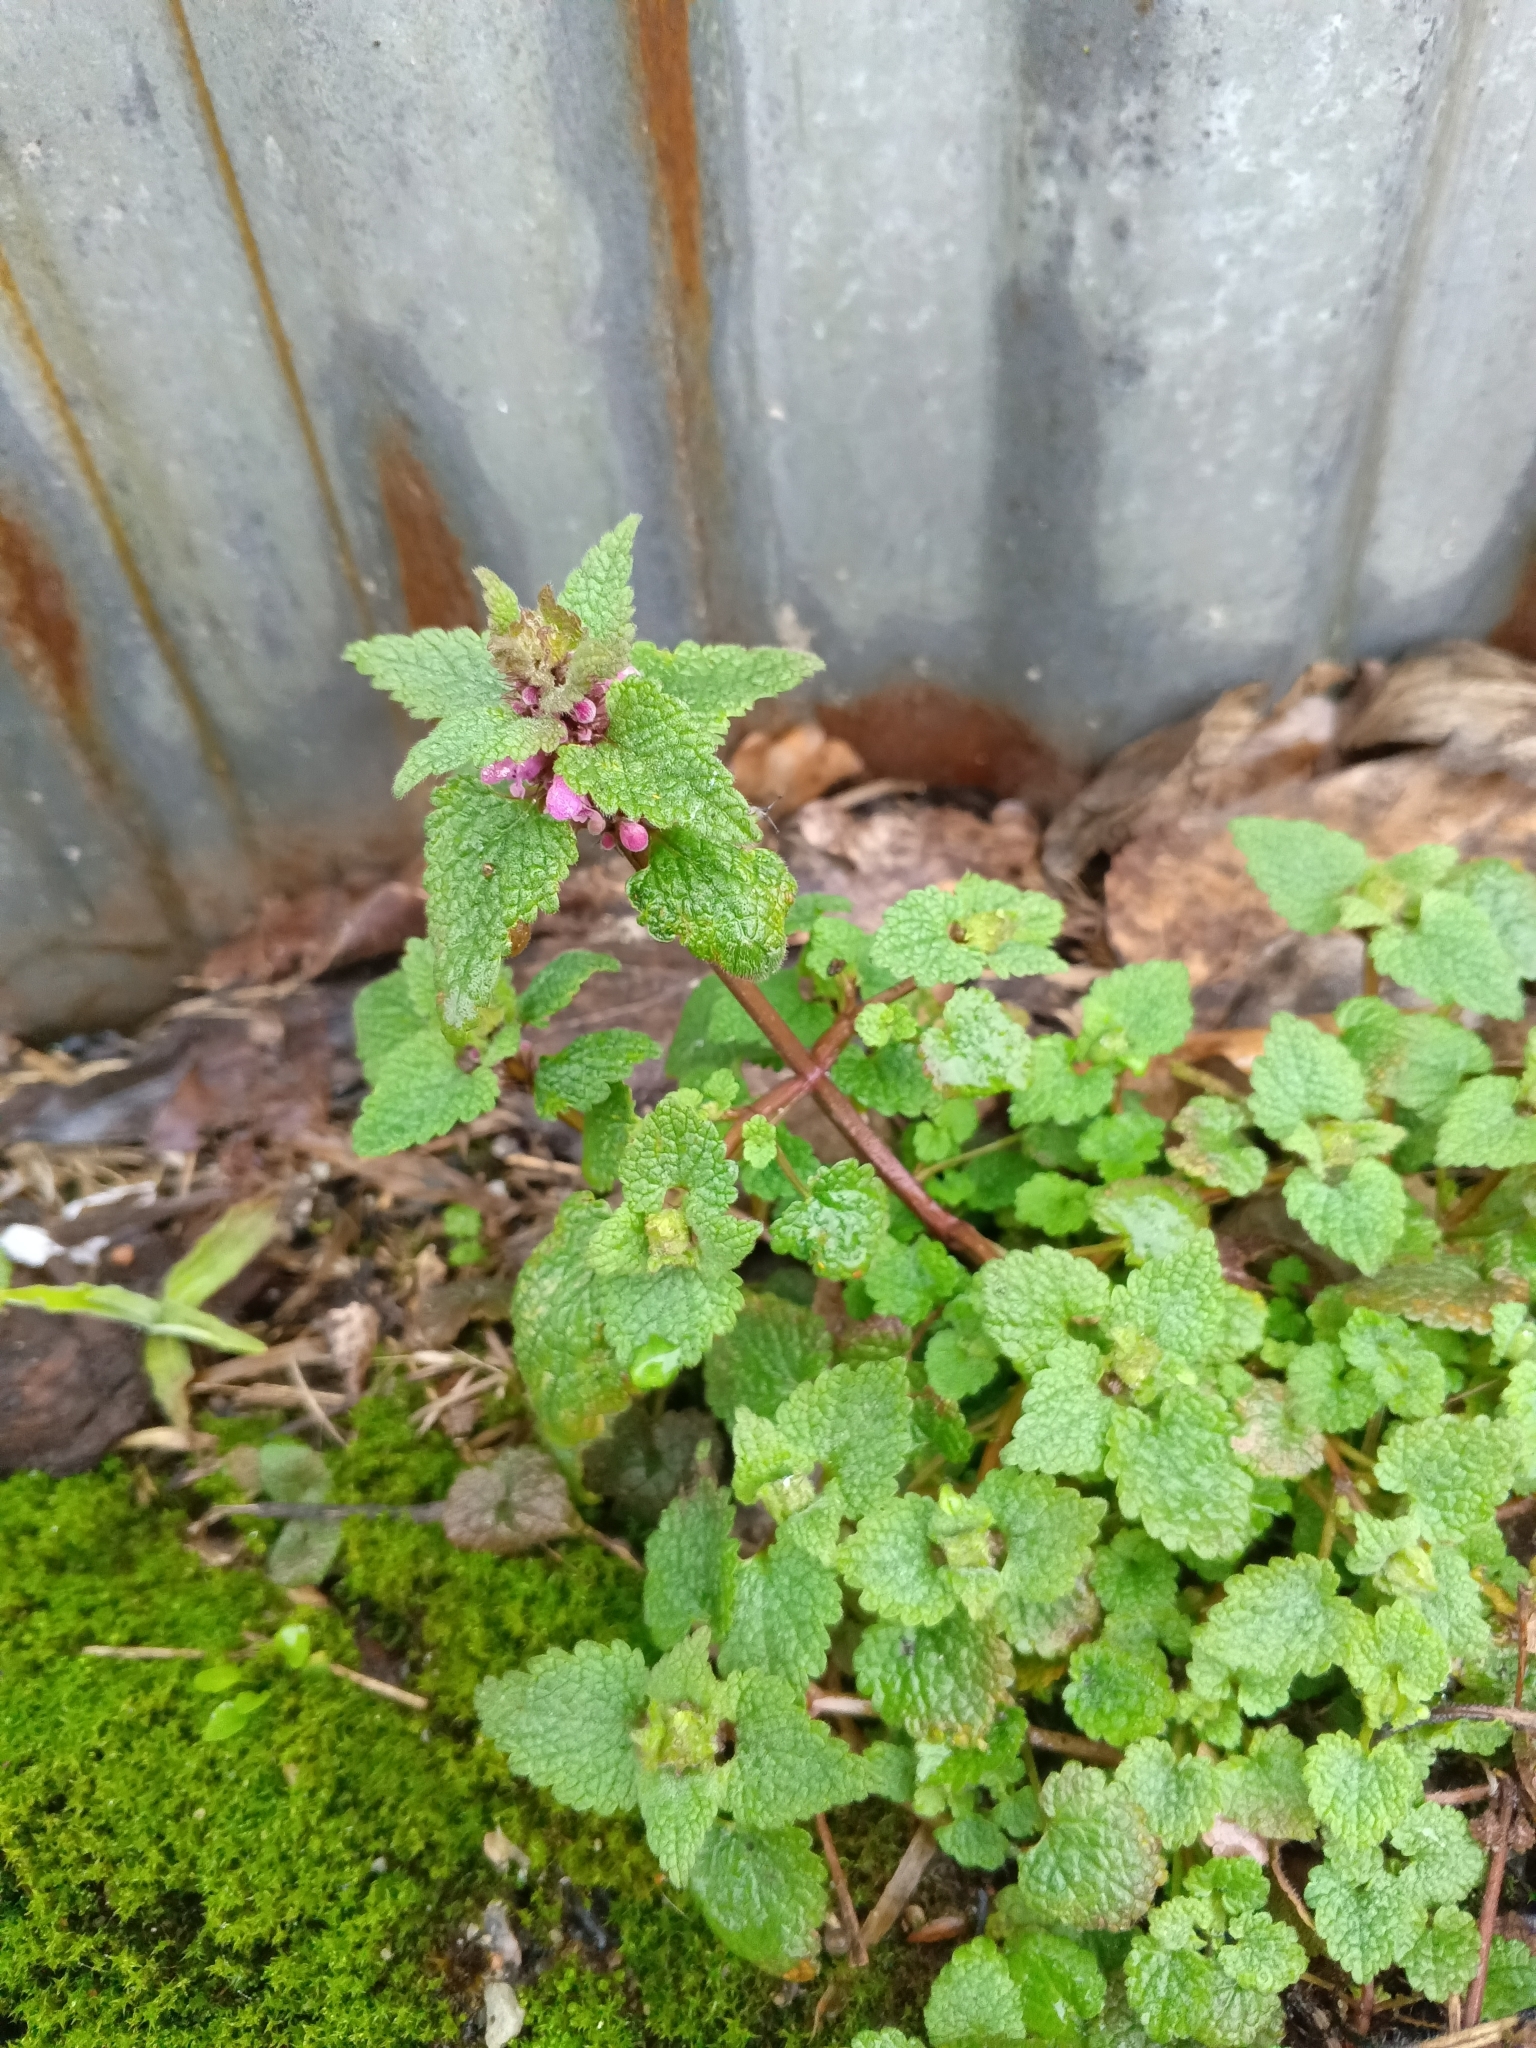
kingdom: Plantae
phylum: Tracheophyta
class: Magnoliopsida
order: Lamiales
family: Lamiaceae
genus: Lamium
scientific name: Lamium purpureum
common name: Red dead-nettle
